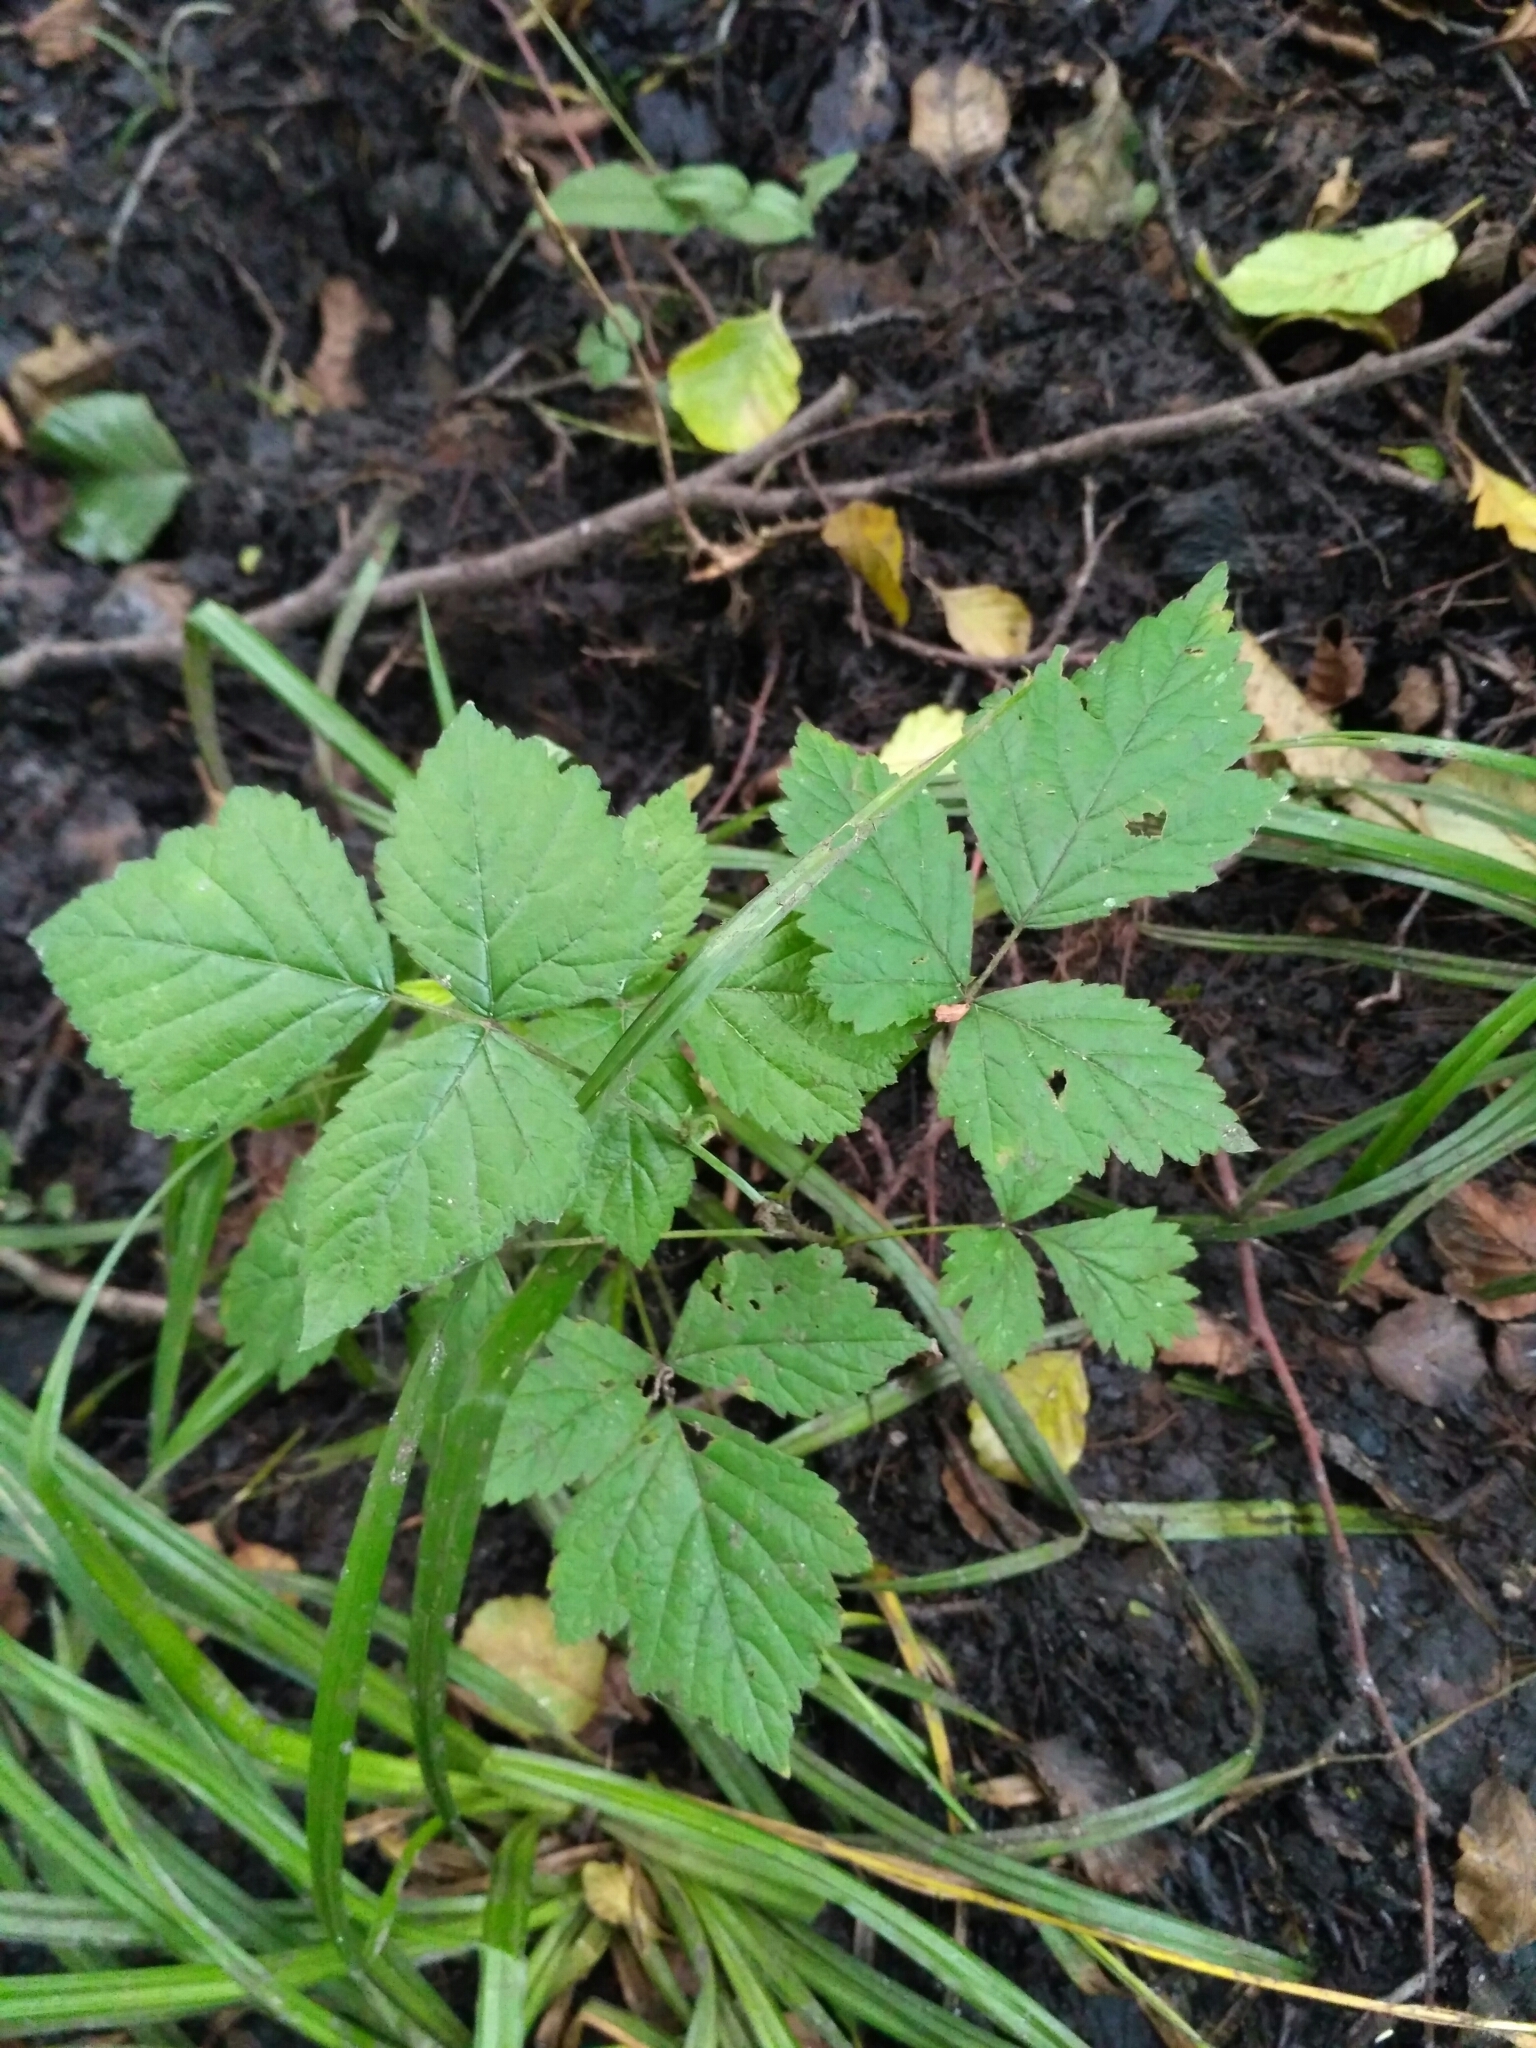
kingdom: Plantae
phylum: Tracheophyta
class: Magnoliopsida
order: Rosales
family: Rosaceae
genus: Rubus
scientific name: Rubus caesius
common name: Dewberry
